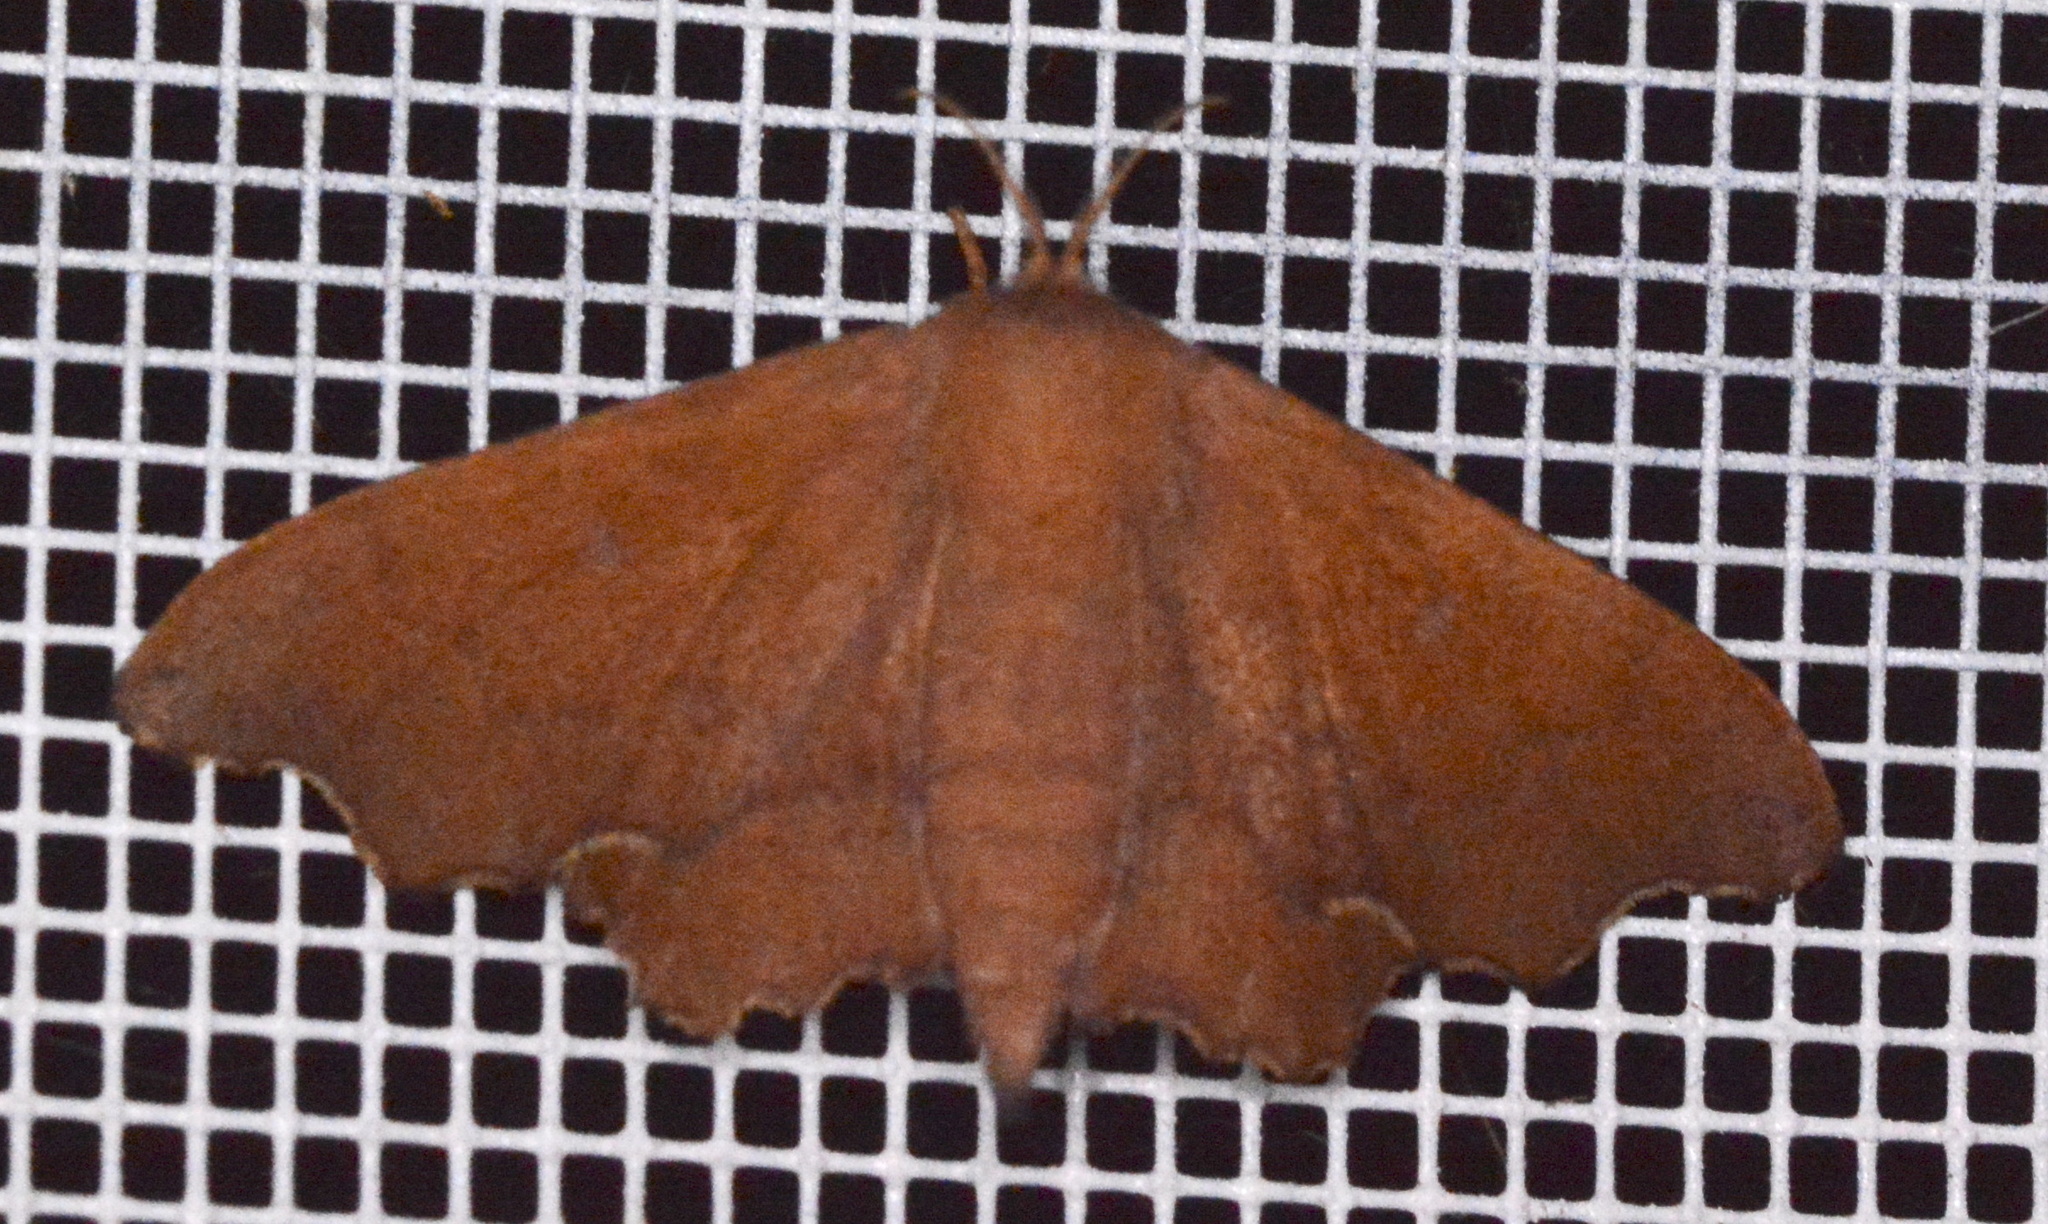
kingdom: Animalia
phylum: Arthropoda
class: Insecta
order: Lepidoptera
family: Mimallonidae
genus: Lacosoma
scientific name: Lacosoma chiridota
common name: Scalloped sack-bearer moth
